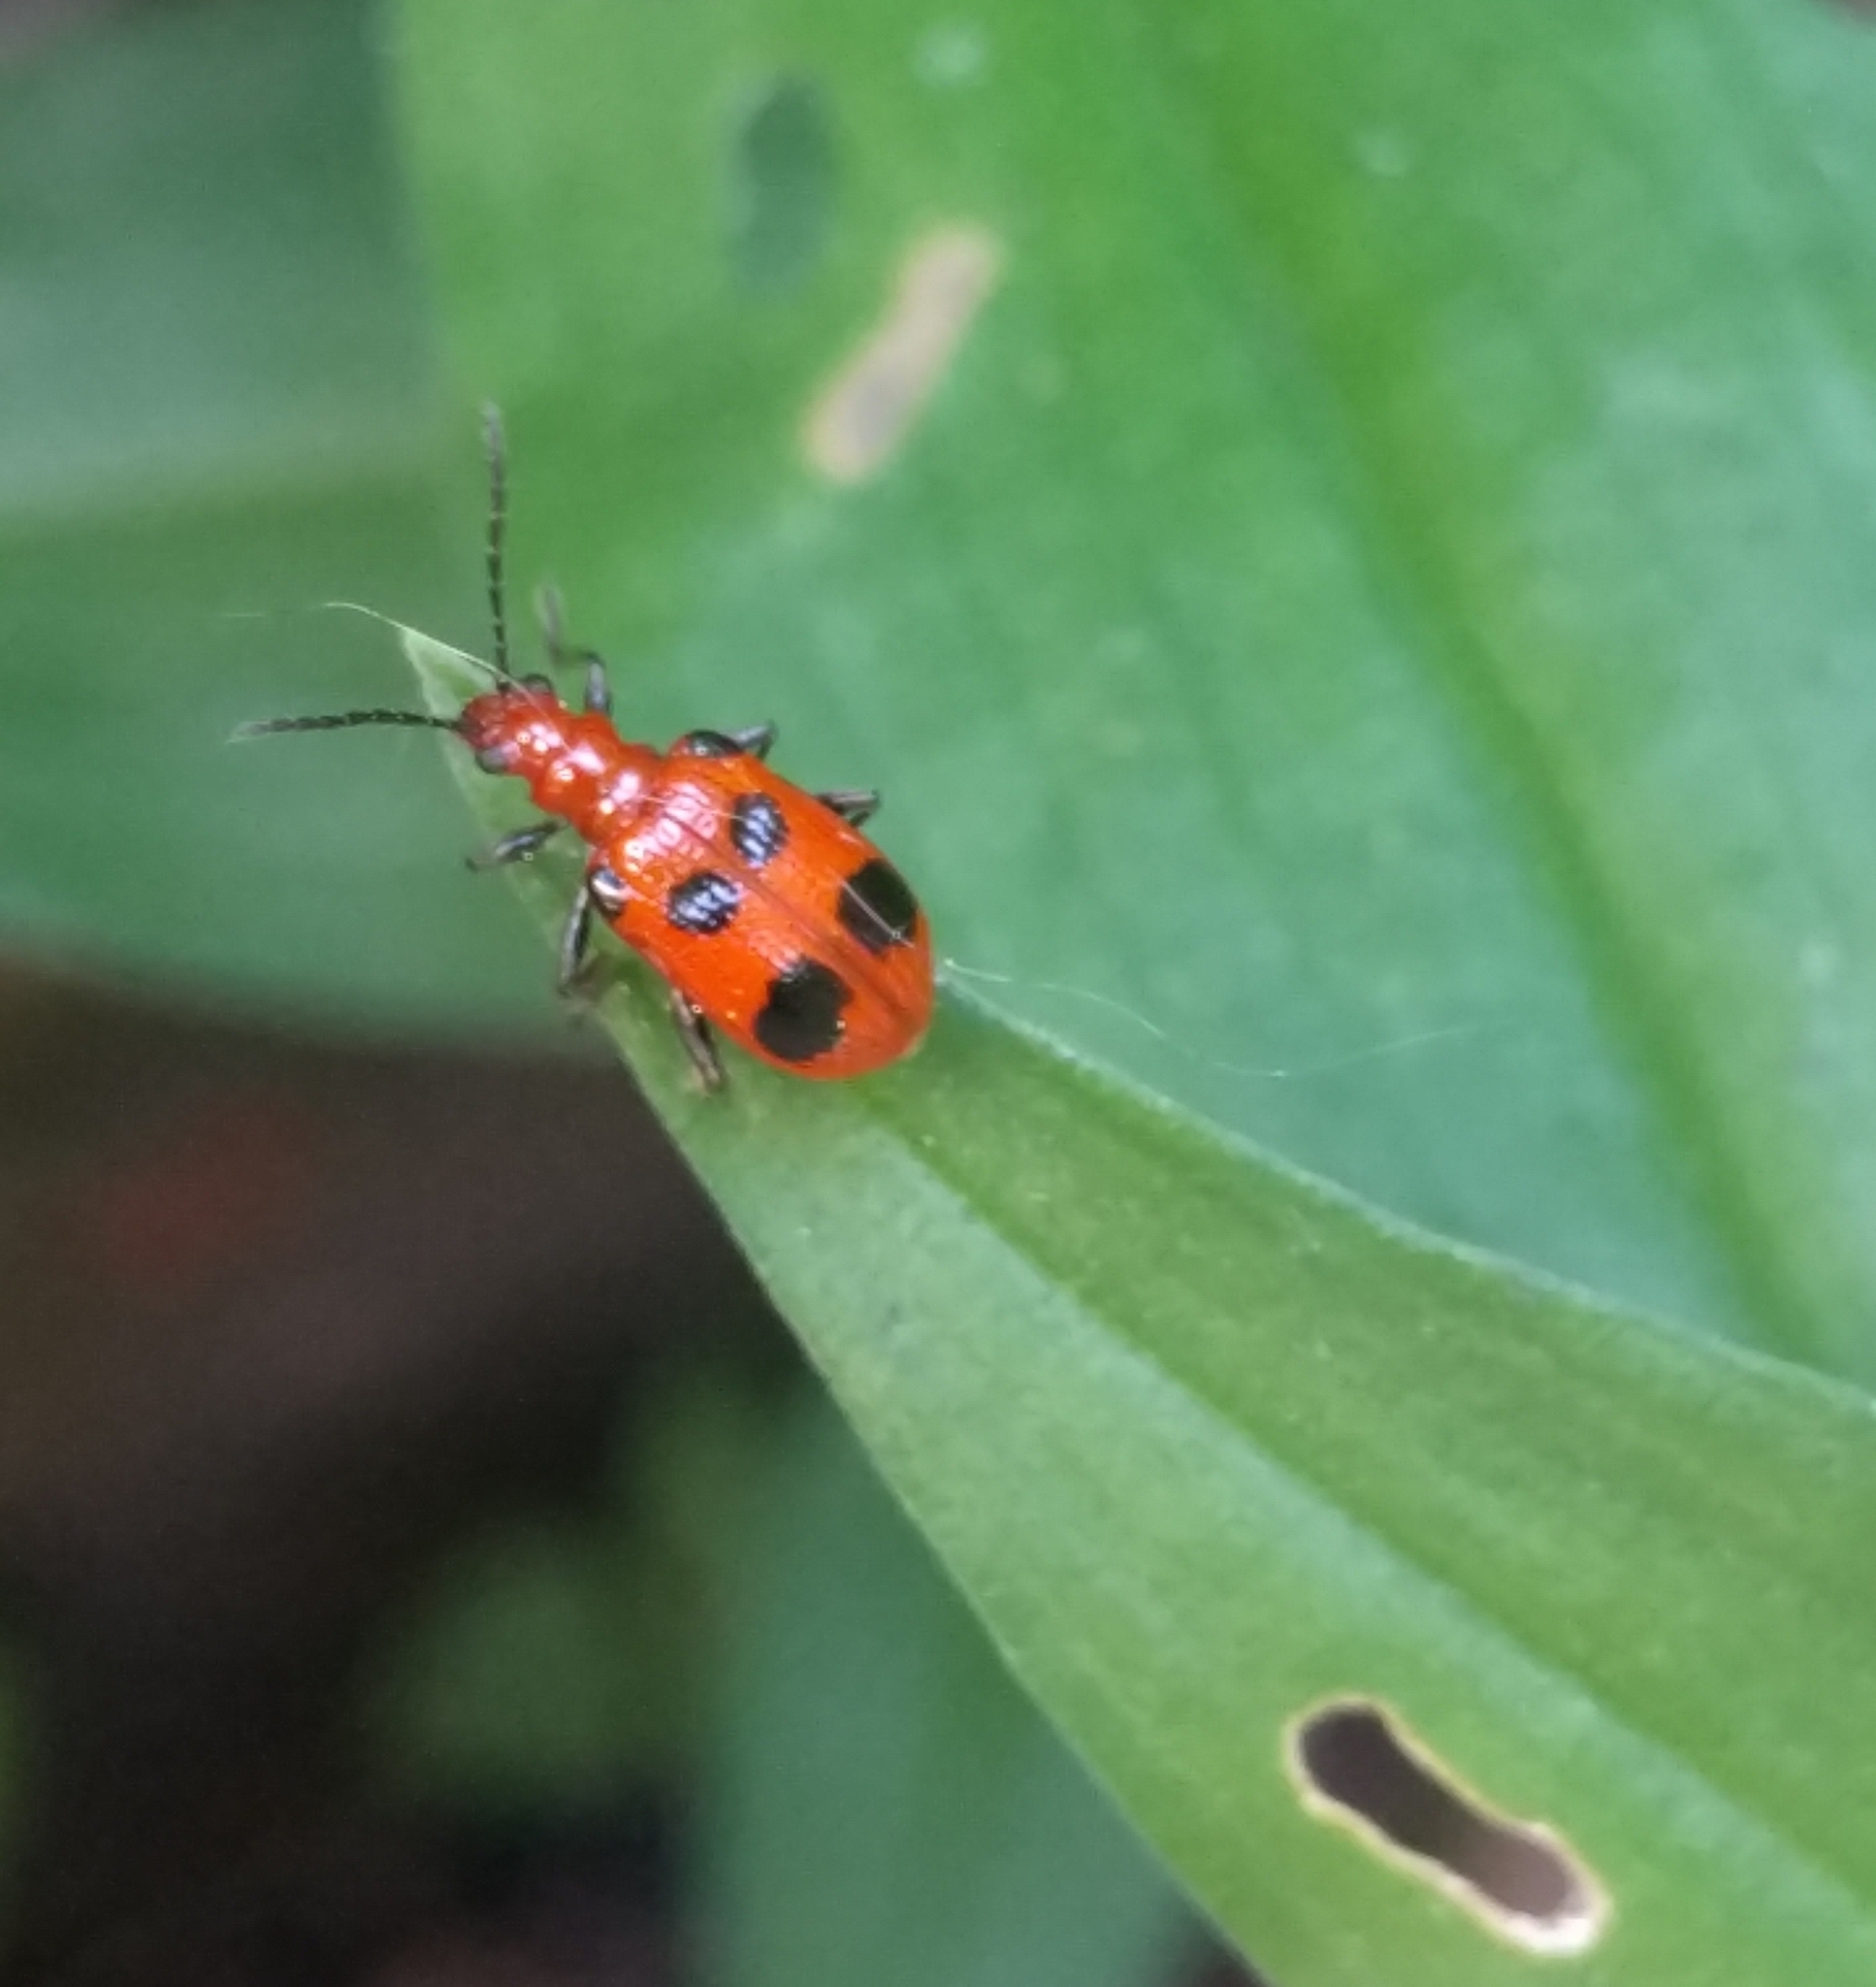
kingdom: Animalia
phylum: Arthropoda
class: Insecta
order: Coleoptera
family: Chrysomelidae
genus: Neolema
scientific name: Neolema sexpunctata
